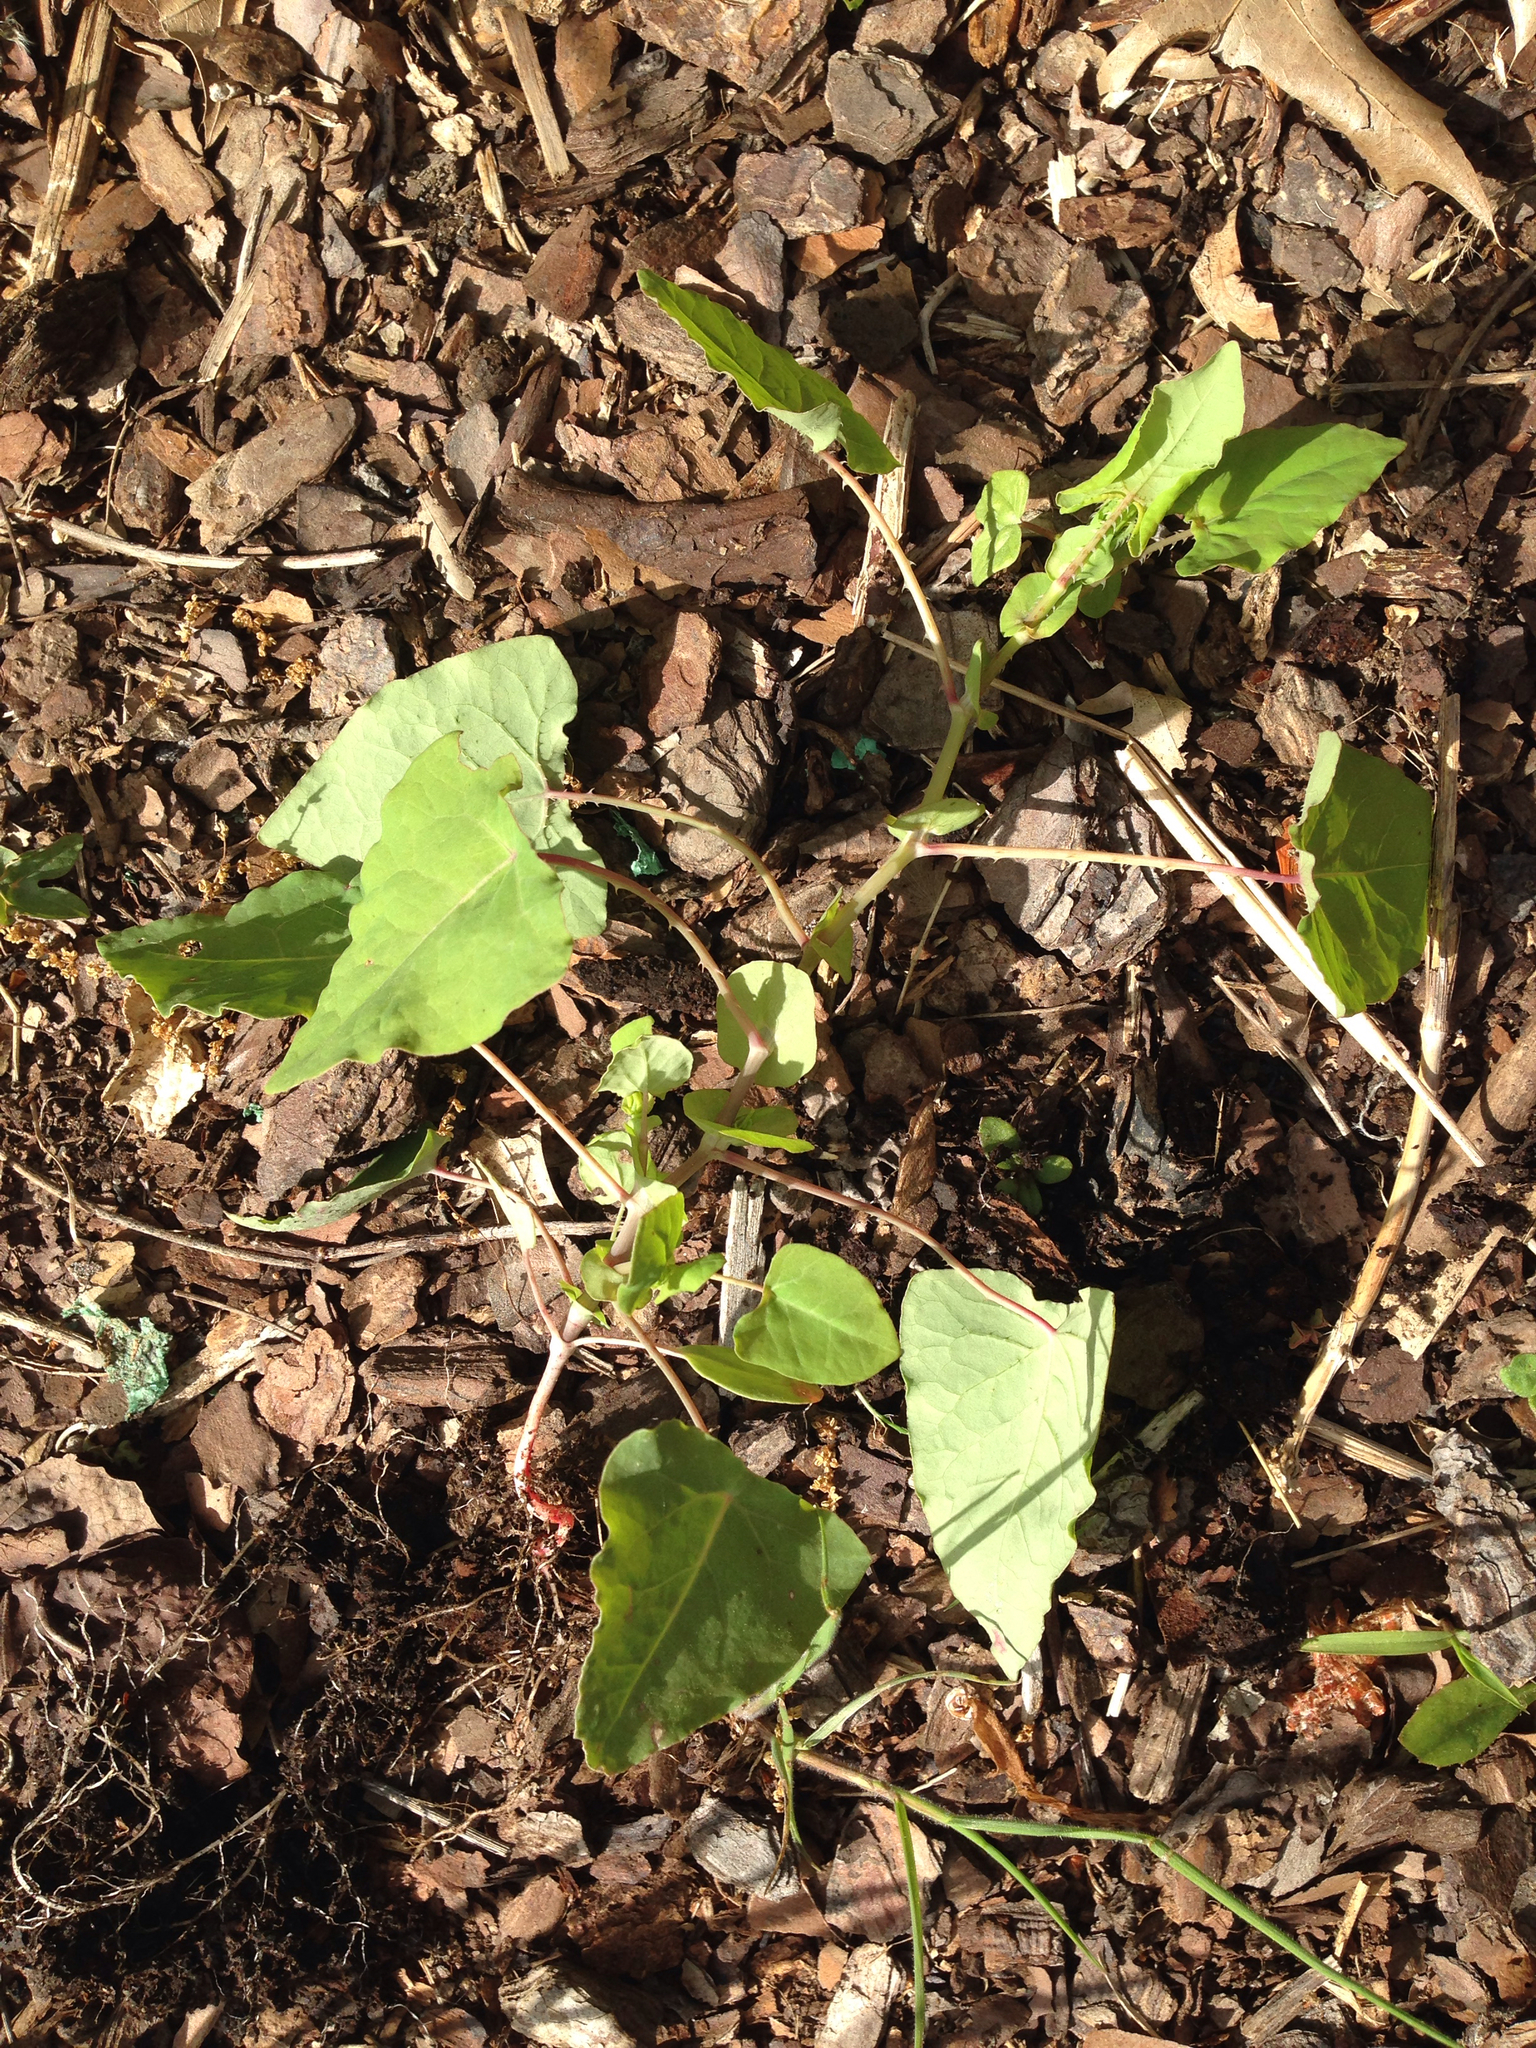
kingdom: Plantae
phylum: Tracheophyta
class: Magnoliopsida
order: Caryophyllales
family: Polygonaceae
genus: Persicaria
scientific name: Persicaria perfoliata
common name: Asiatic tearthumb
